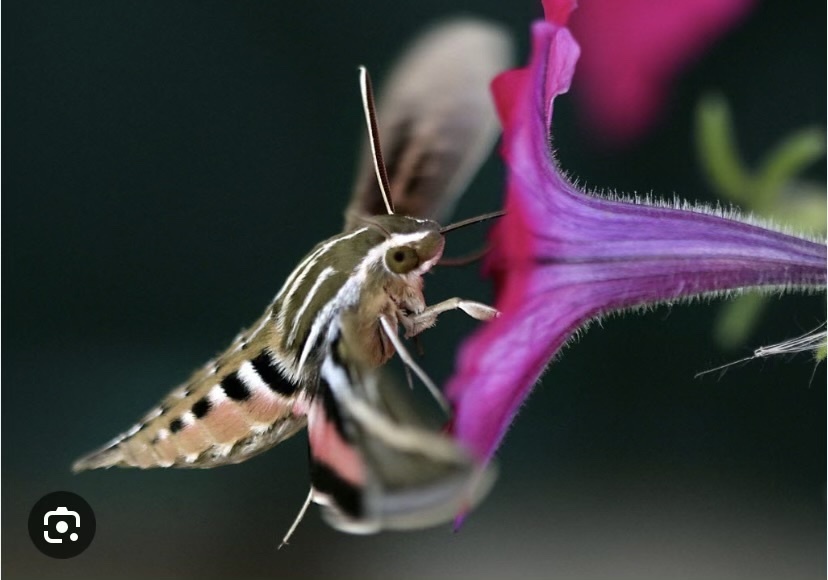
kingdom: Animalia
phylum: Arthropoda
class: Insecta
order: Lepidoptera
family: Sphingidae
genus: Hyles
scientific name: Hyles lineata
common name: White-lined sphinx
